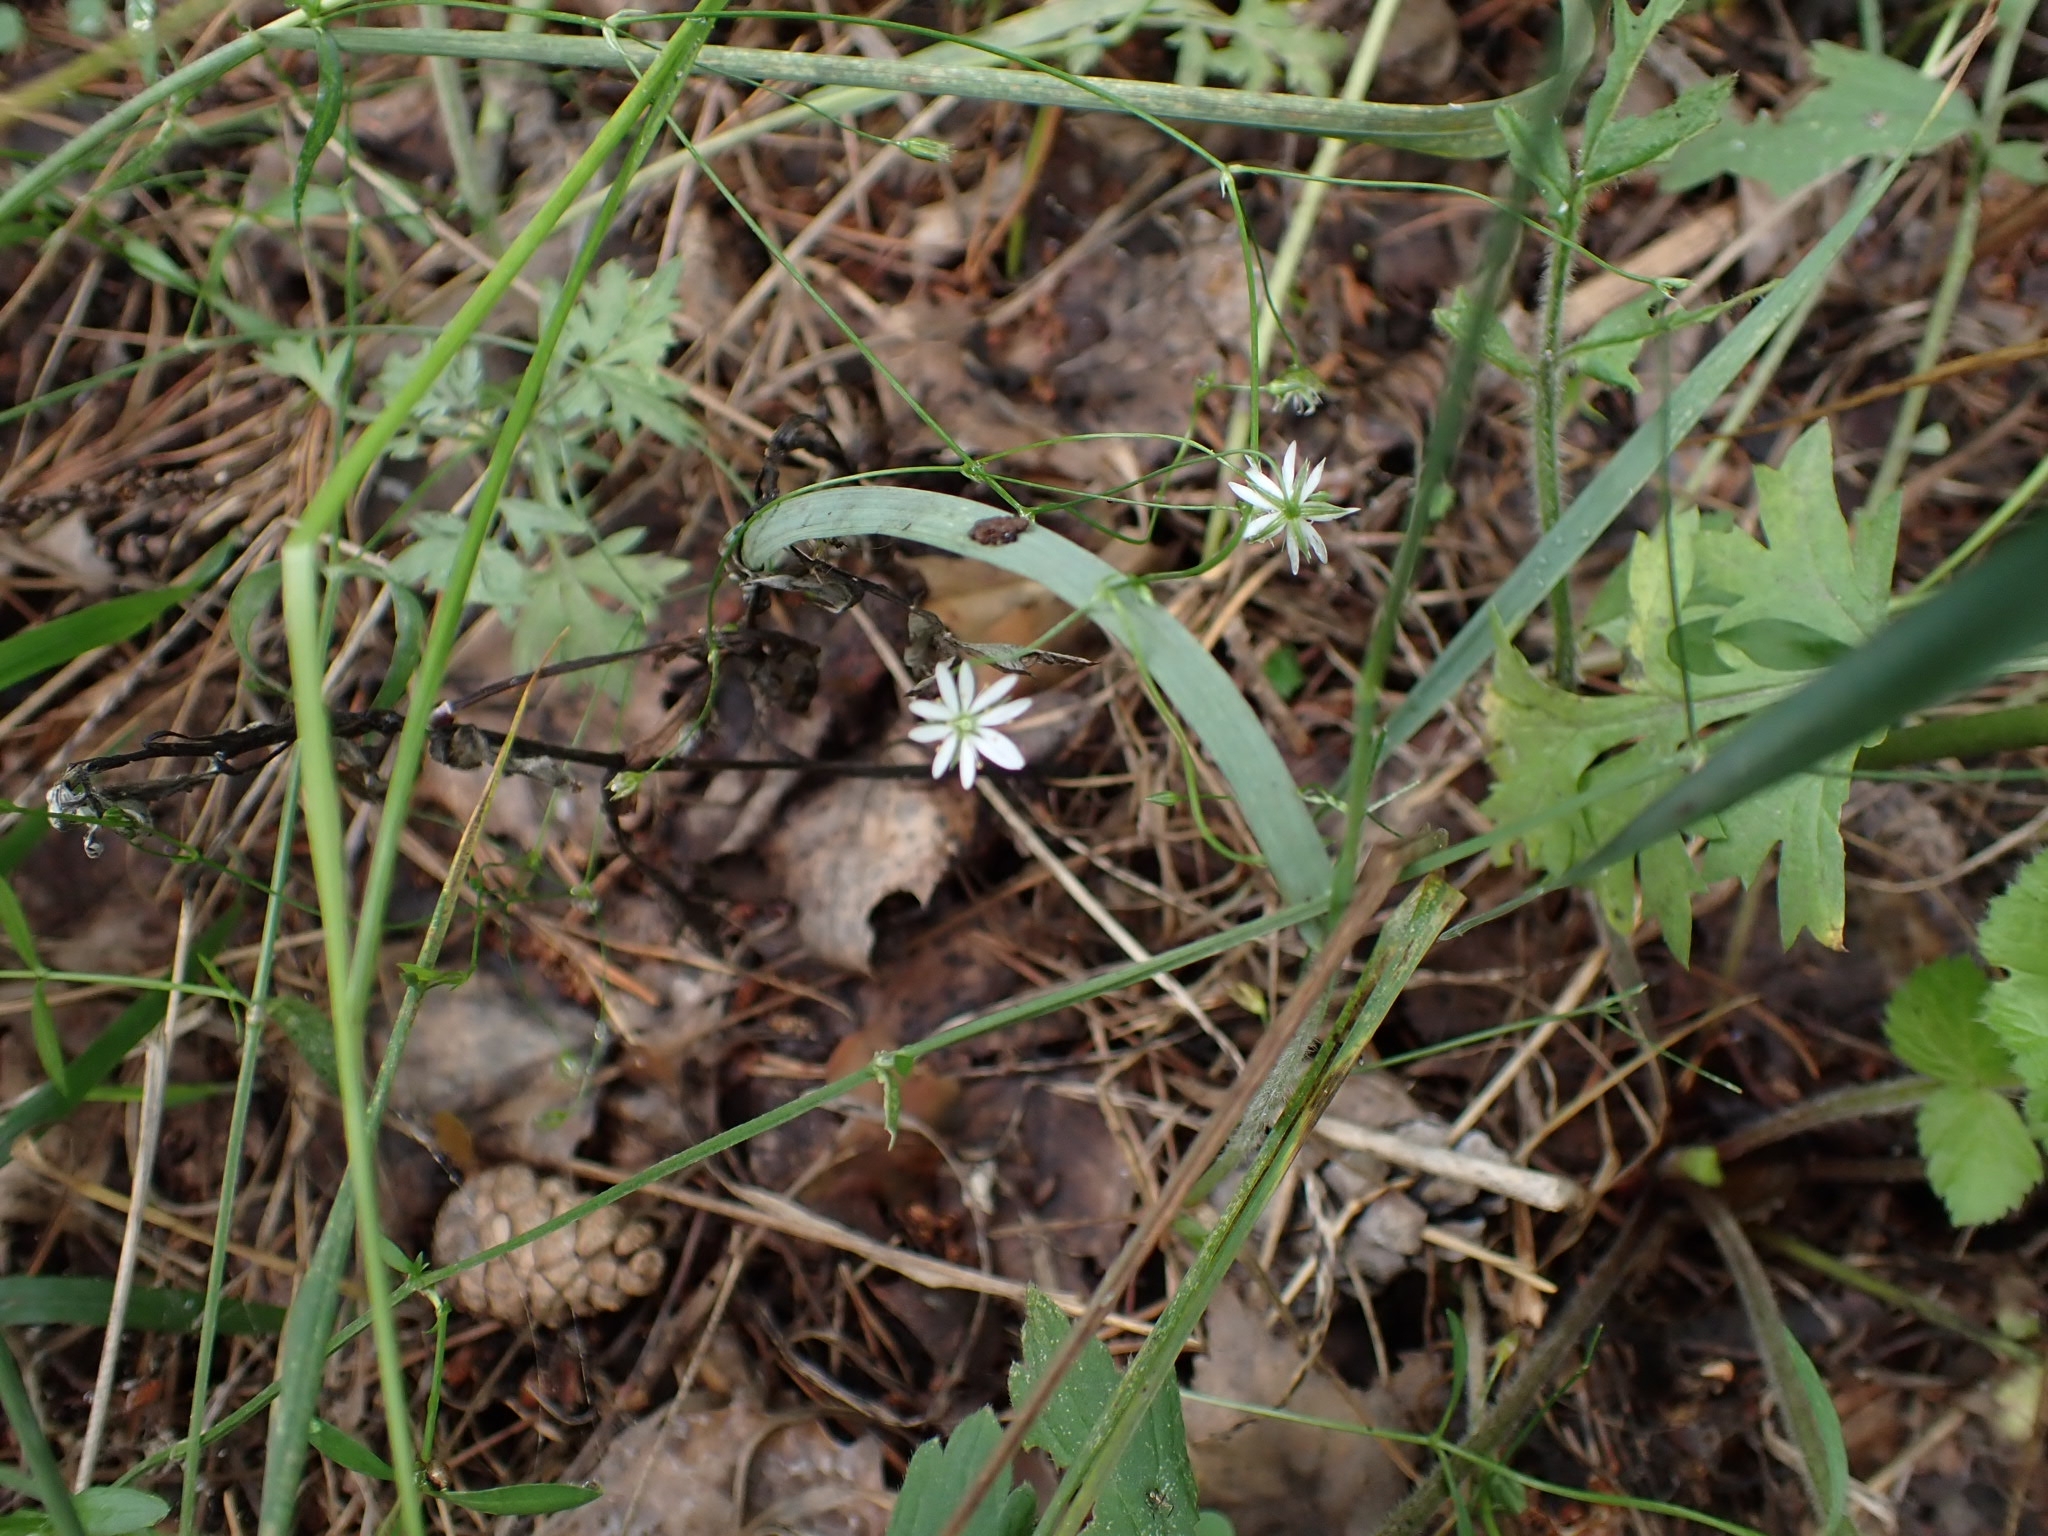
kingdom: Plantae
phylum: Tracheophyta
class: Magnoliopsida
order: Caryophyllales
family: Caryophyllaceae
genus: Stellaria
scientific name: Stellaria graminea
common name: Grass-like starwort
